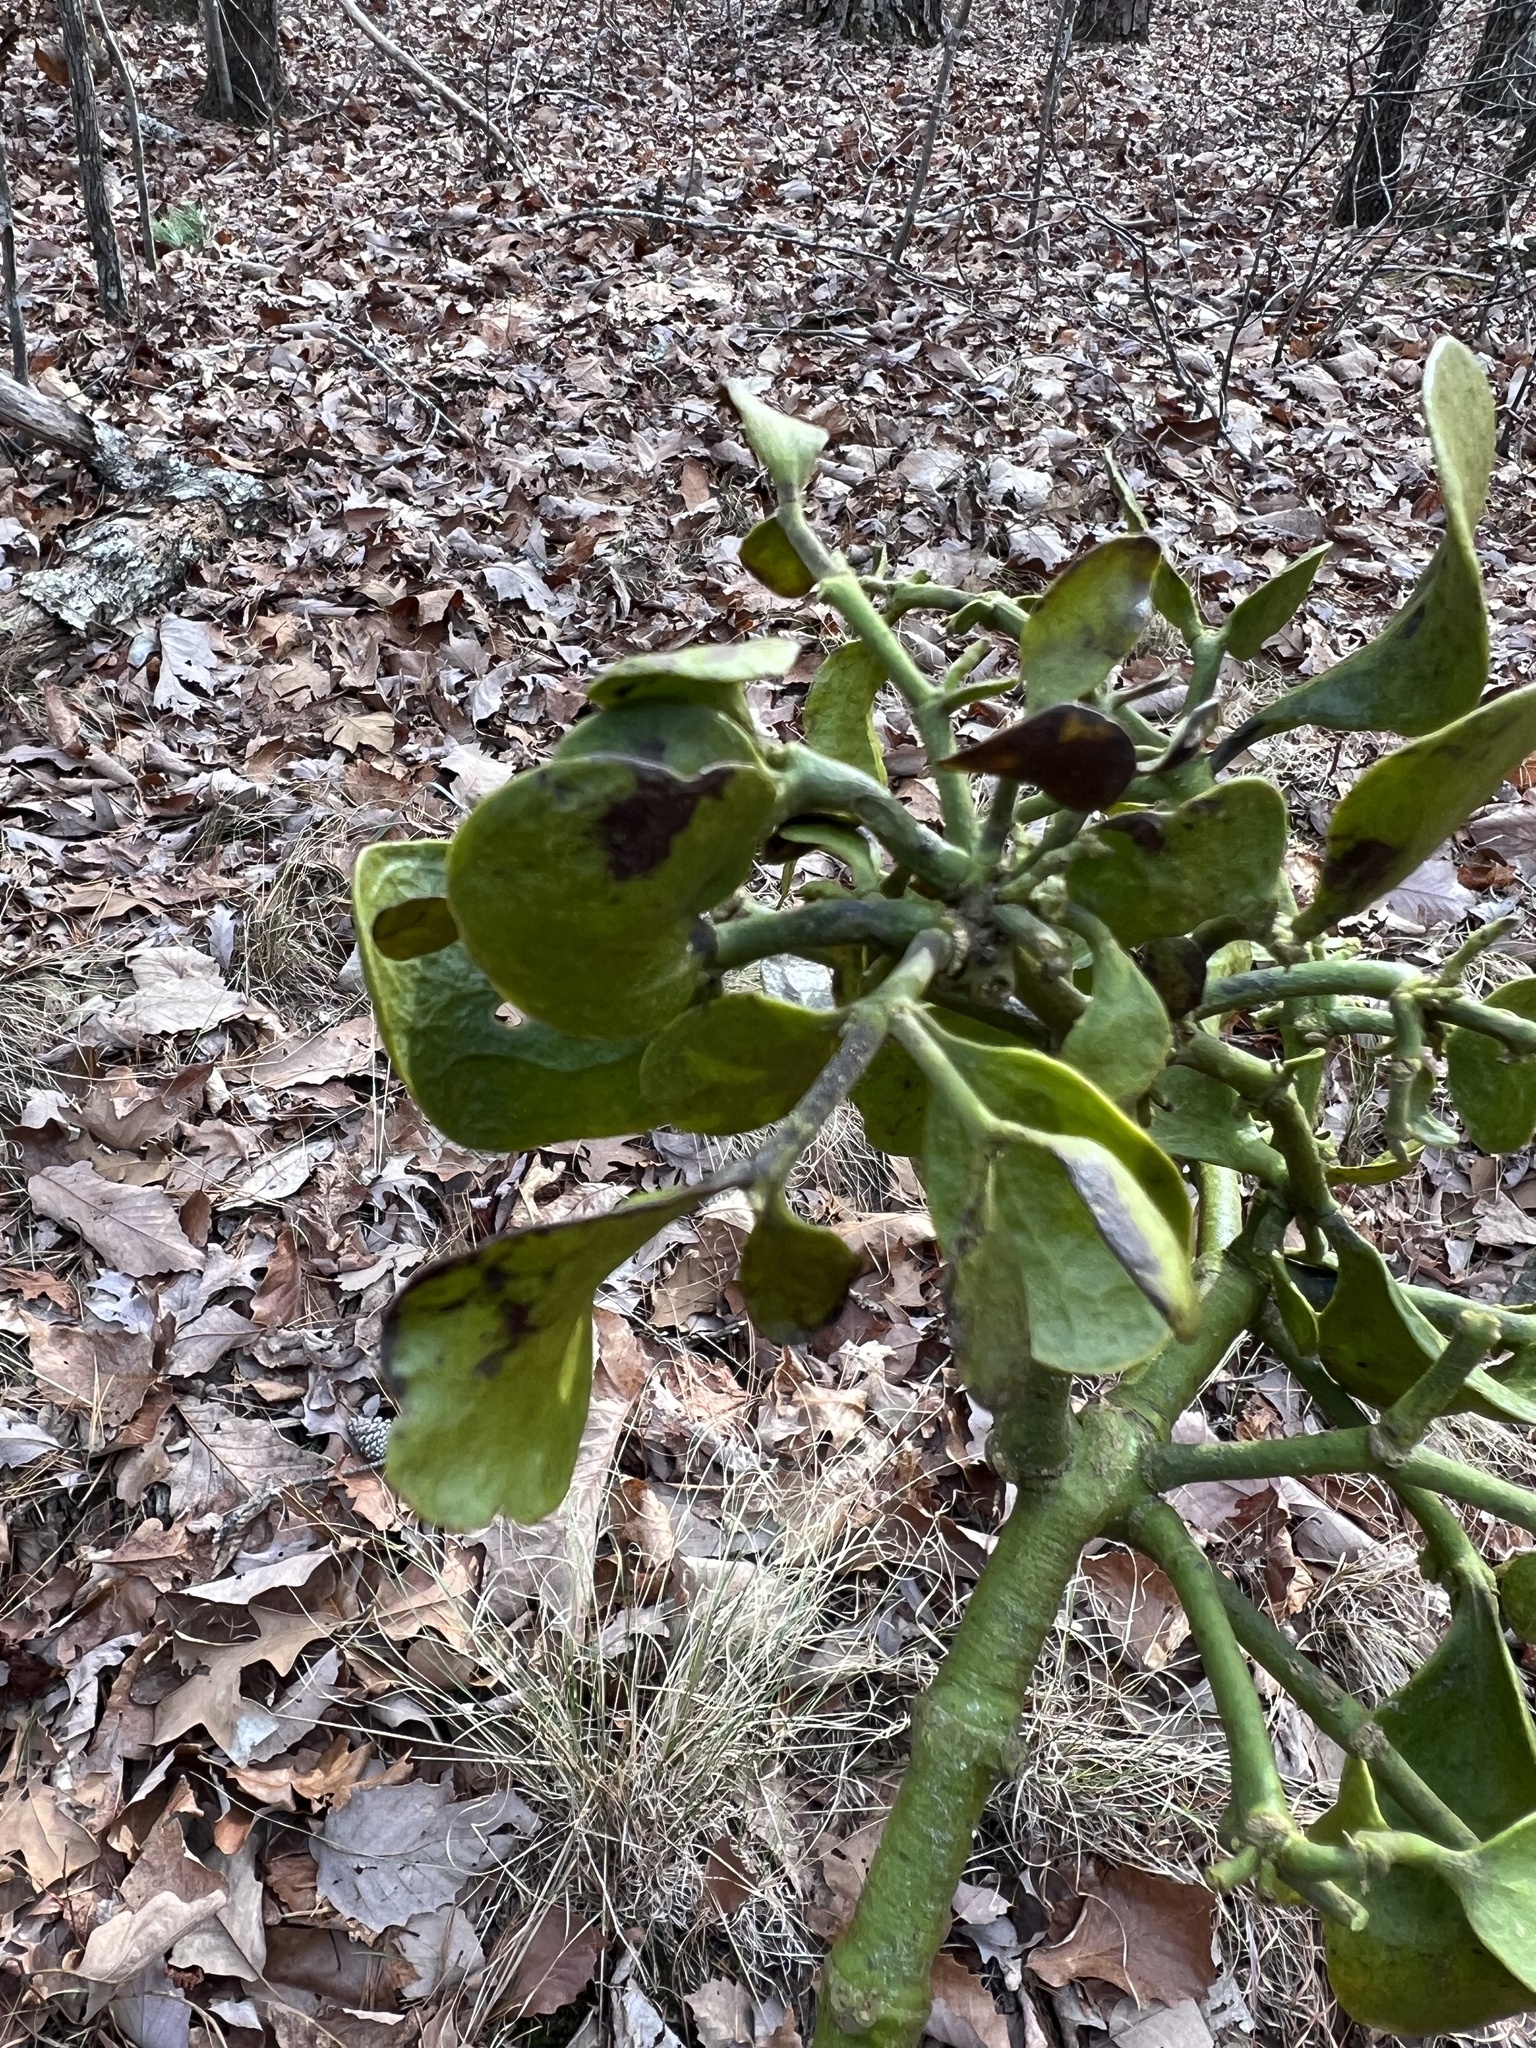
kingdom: Plantae
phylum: Tracheophyta
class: Magnoliopsida
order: Santalales
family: Viscaceae
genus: Phoradendron
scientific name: Phoradendron leucarpum
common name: Pacific mistletoe
